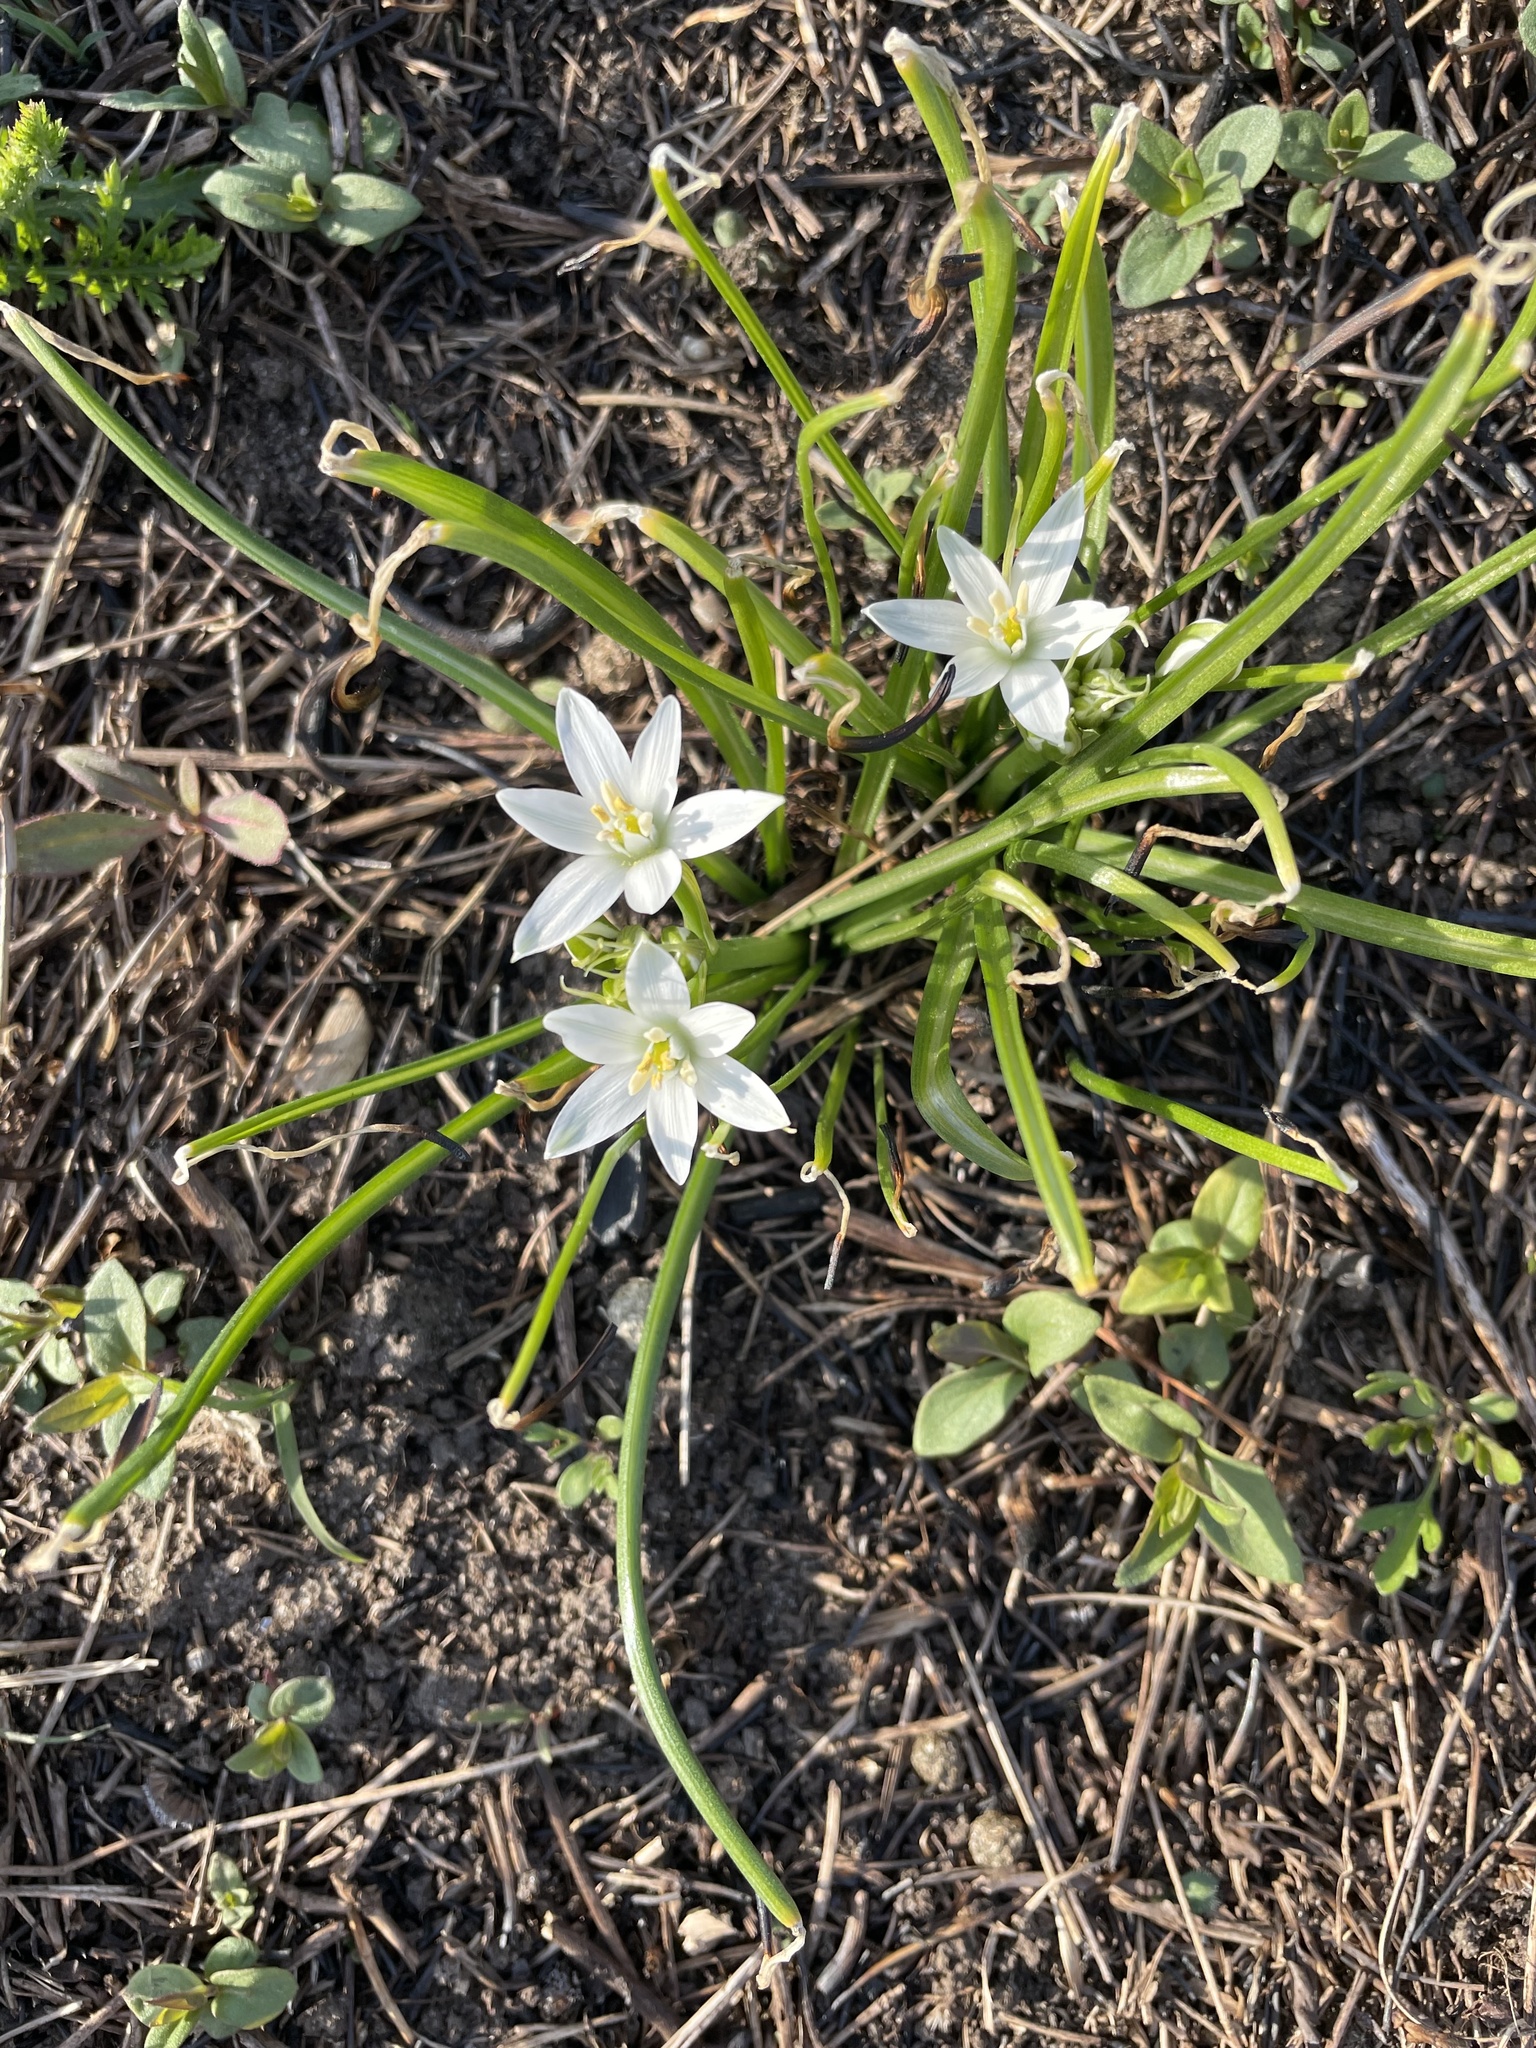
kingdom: Plantae
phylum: Tracheophyta
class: Liliopsida
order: Asparagales
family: Asparagaceae
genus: Ornithogalum
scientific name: Ornithogalum umbellatum
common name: Garden star-of-bethlehem
